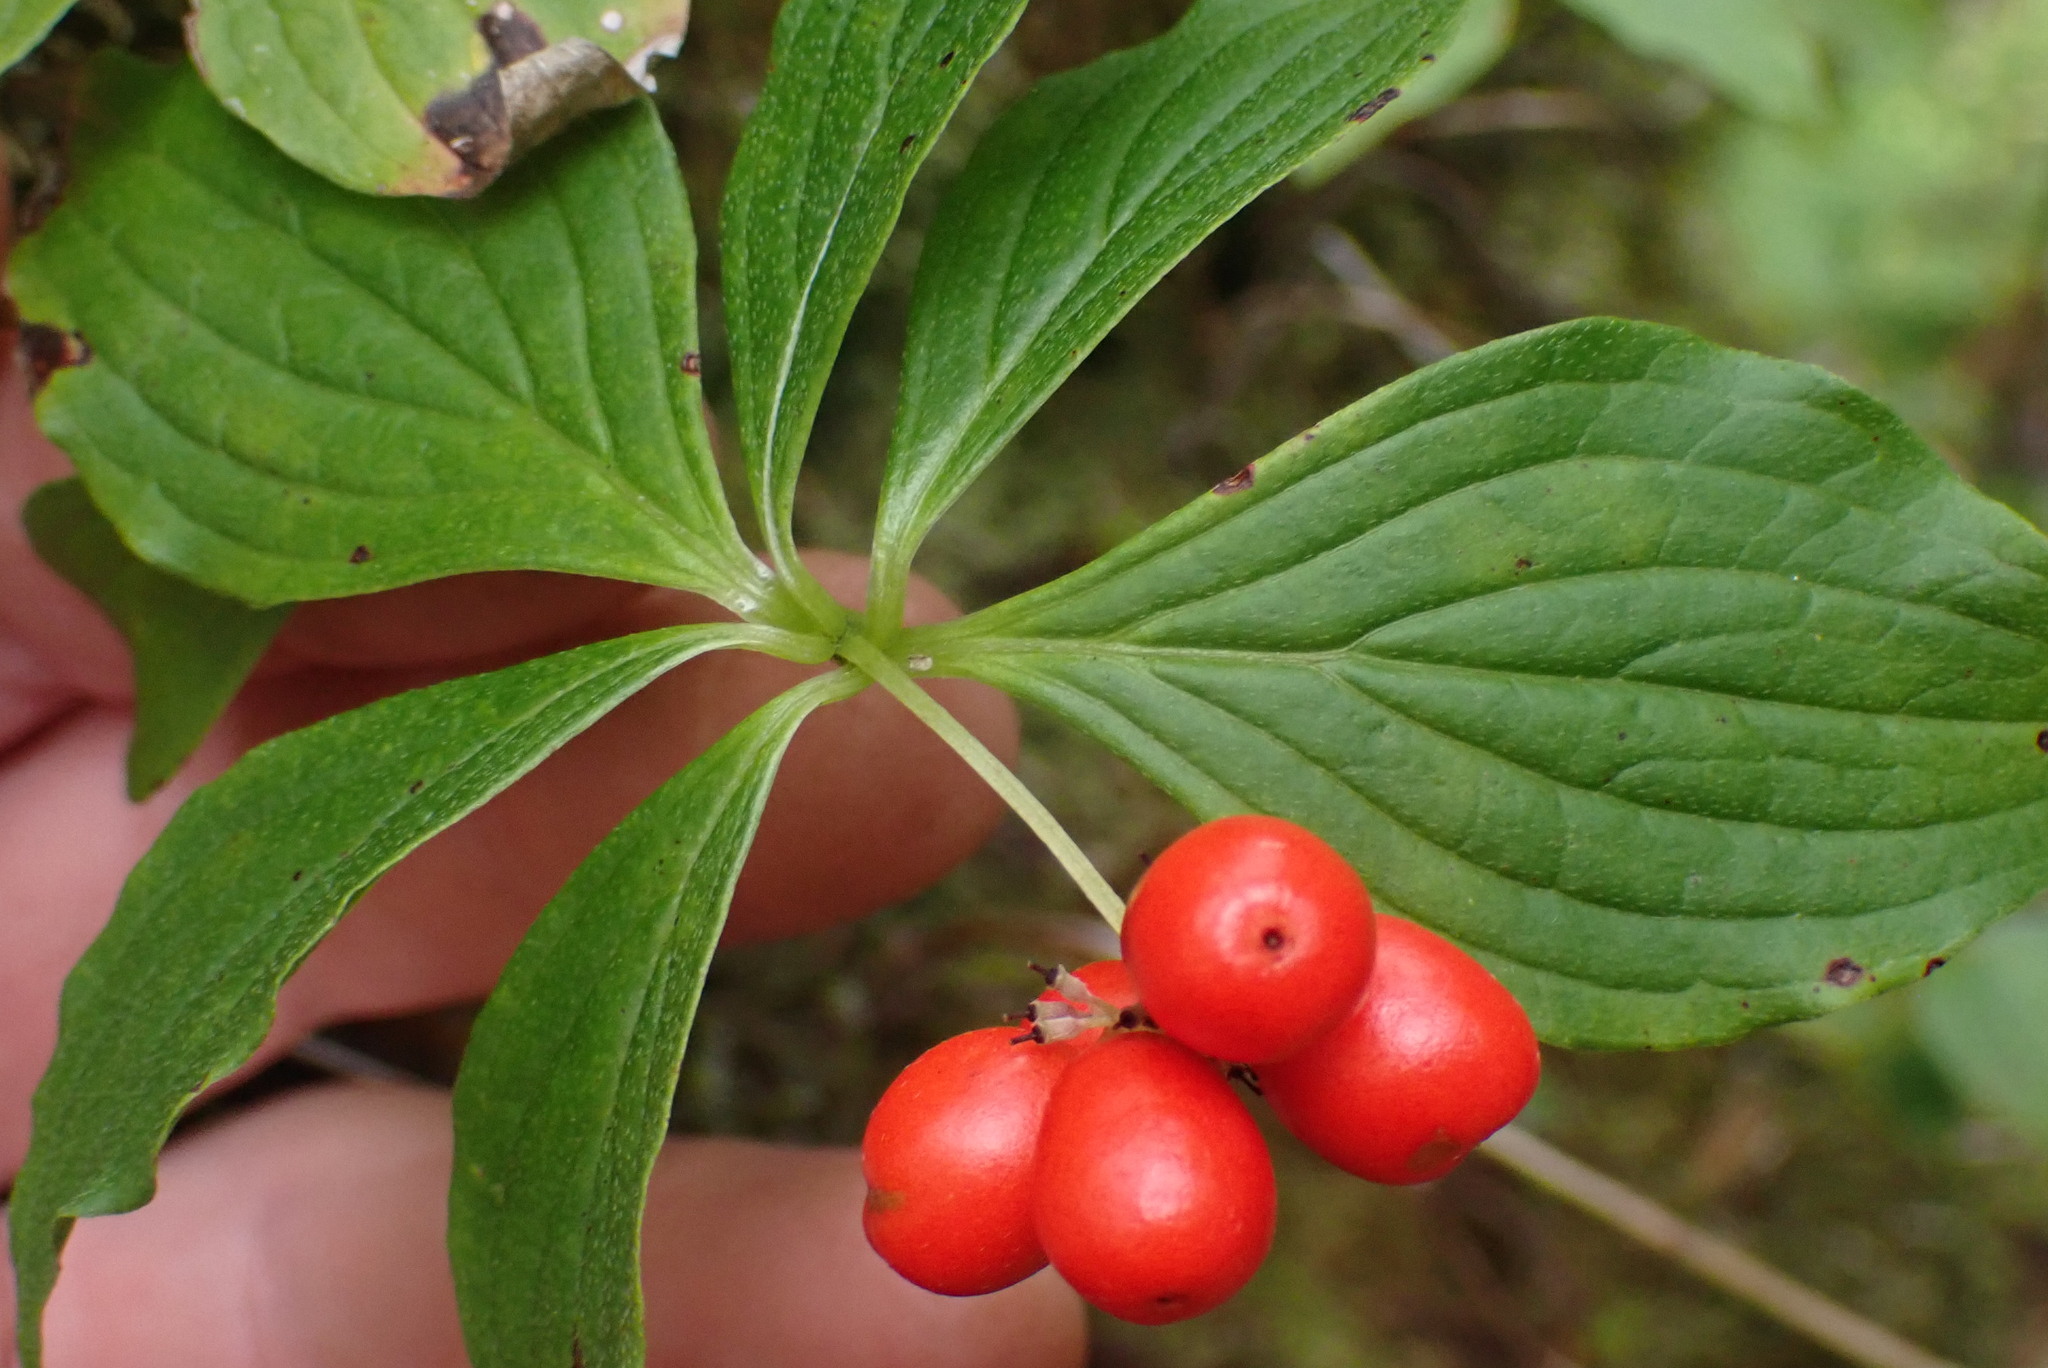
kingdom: Plantae
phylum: Tracheophyta
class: Magnoliopsida
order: Cornales
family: Cornaceae
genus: Cornus
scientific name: Cornus unalaschkensis
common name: Alaska bunchberry
